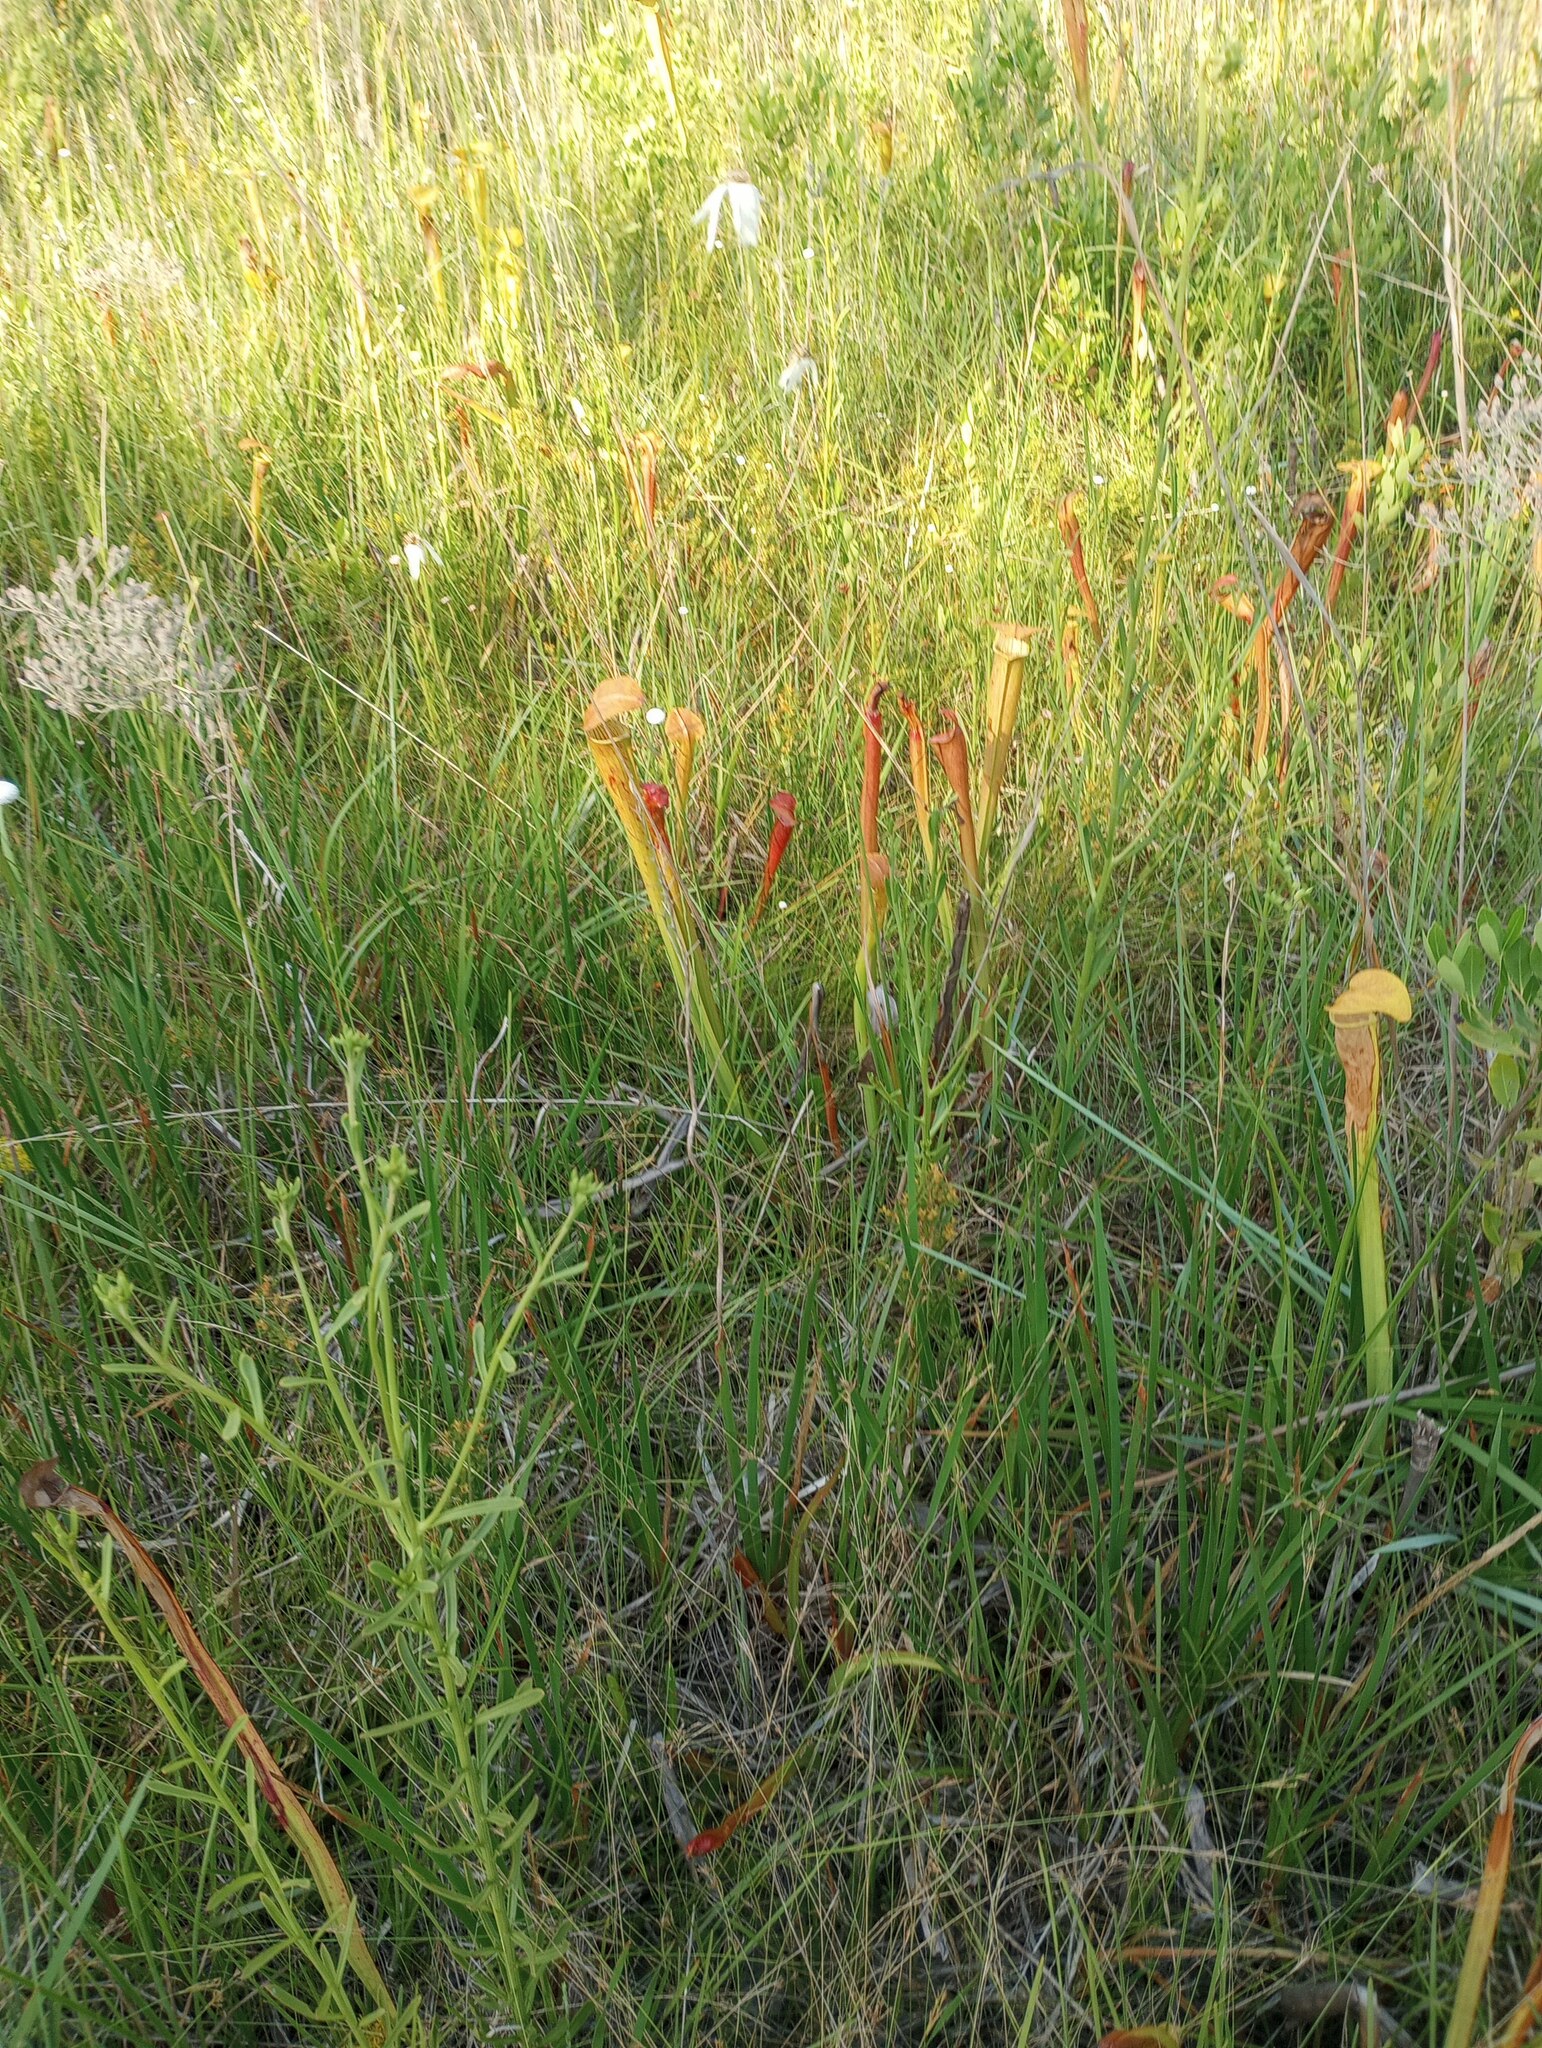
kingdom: Plantae
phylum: Tracheophyta
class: Magnoliopsida
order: Ericales
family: Sarraceniaceae
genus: Sarracenia
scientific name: Sarracenia alata
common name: Yellow trumpets
